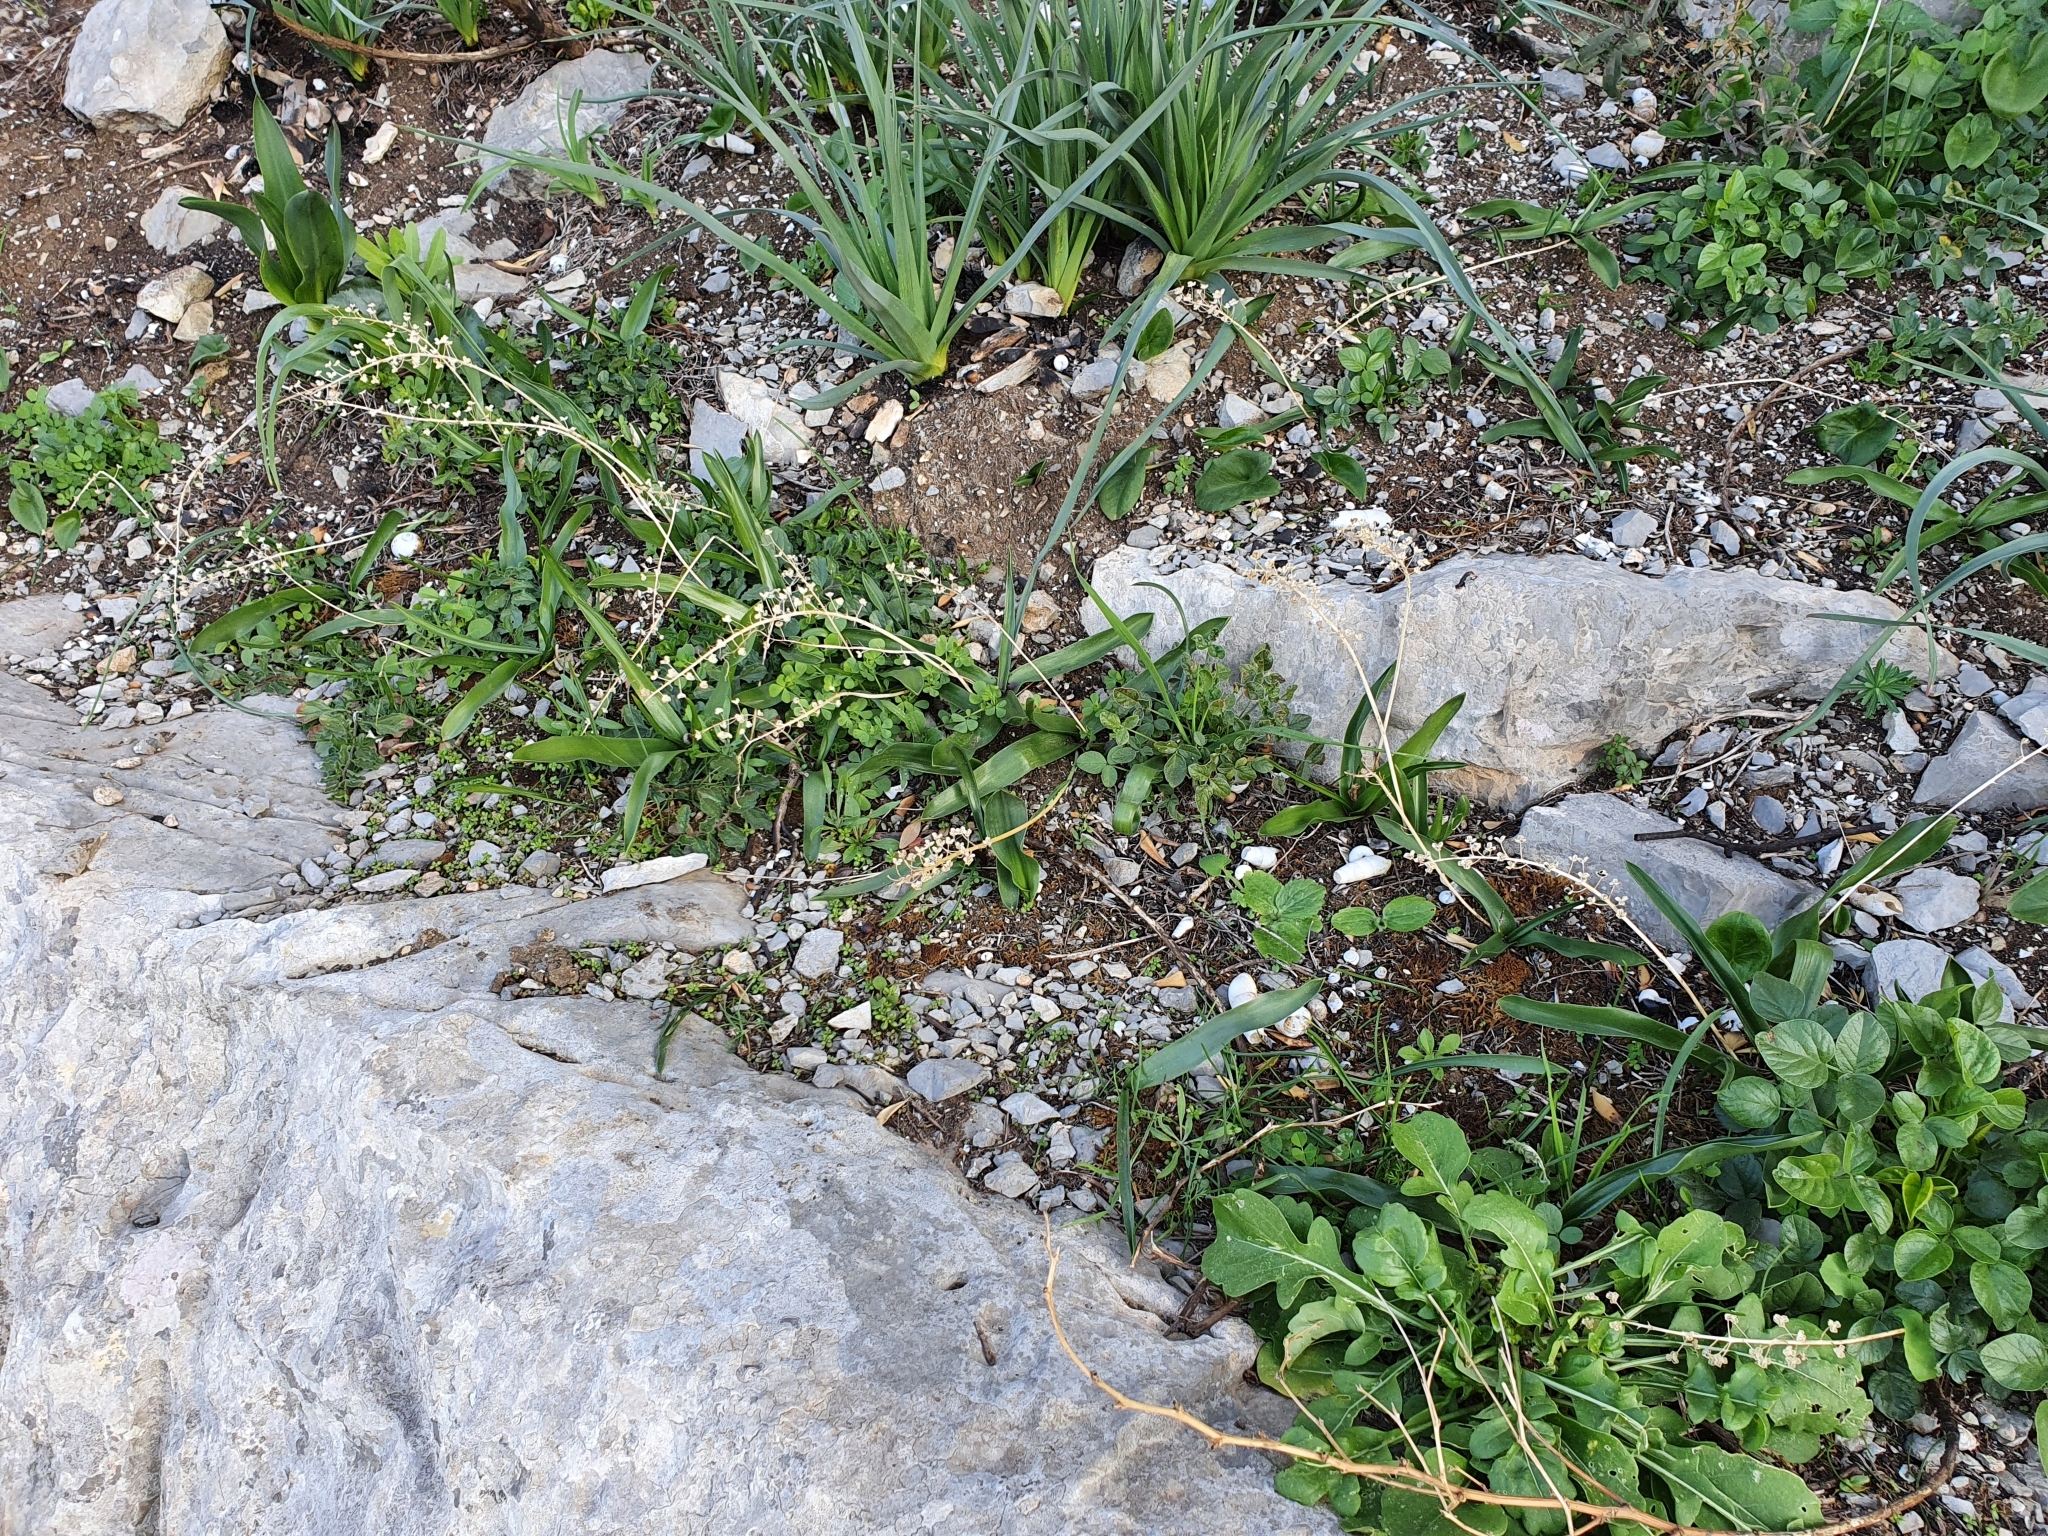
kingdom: Plantae
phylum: Tracheophyta
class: Liliopsida
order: Asparagales
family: Asparagaceae
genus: Prospero
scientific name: Prospero obtusifolium
